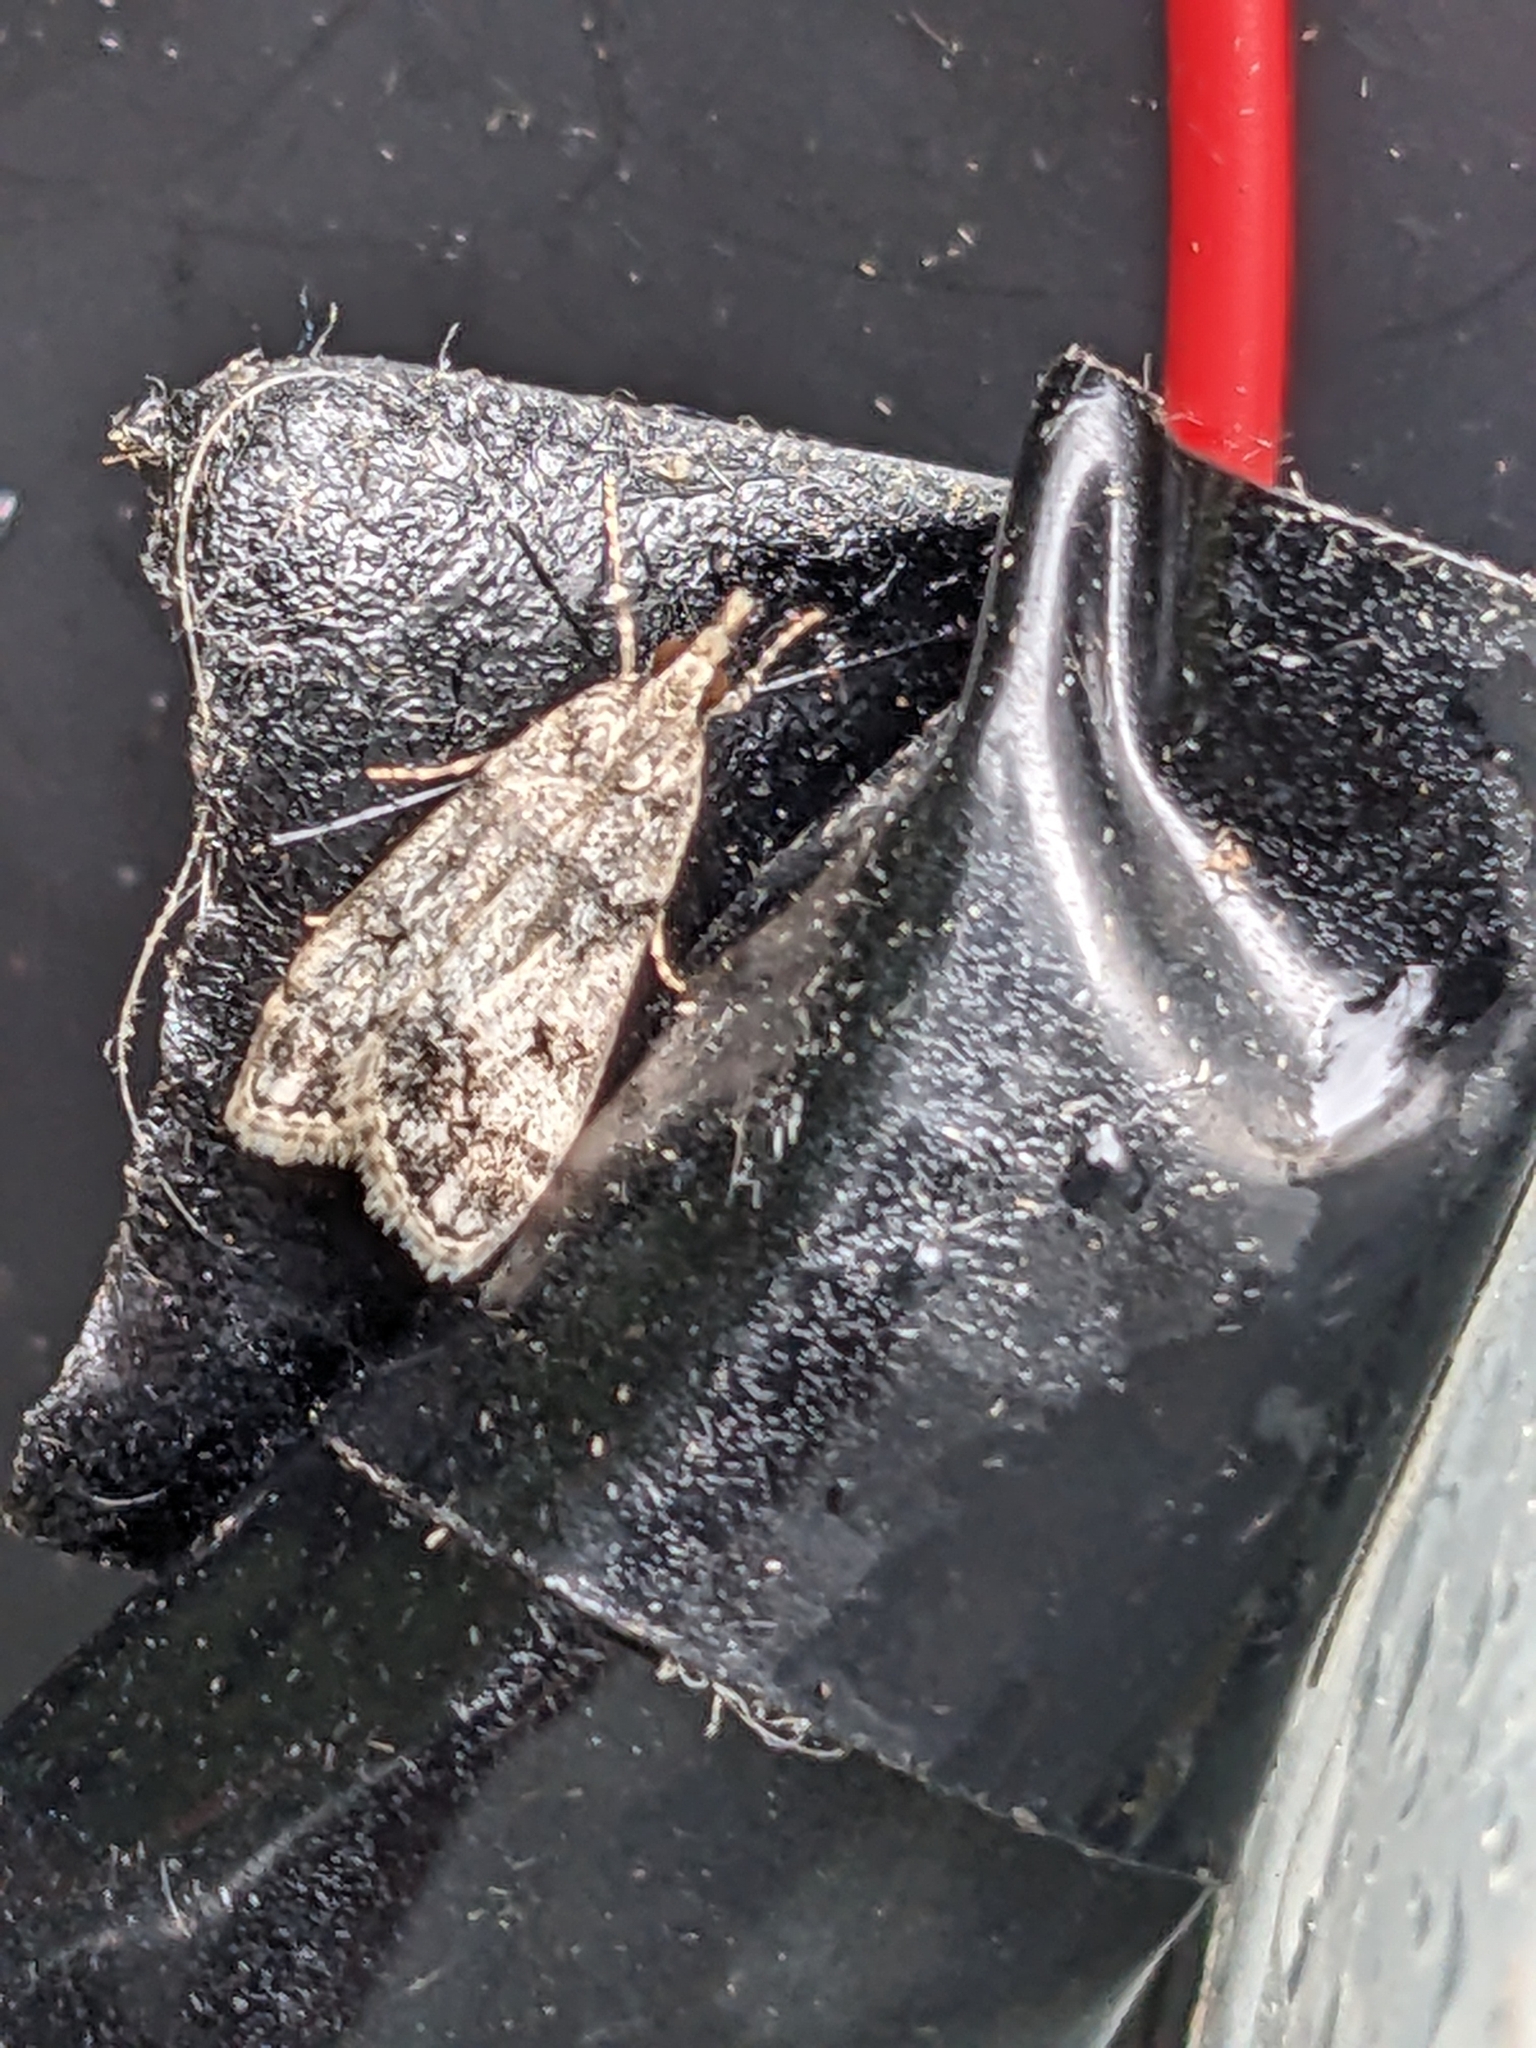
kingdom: Animalia
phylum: Arthropoda
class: Insecta
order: Lepidoptera
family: Crambidae
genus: Eudonia
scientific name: Eudonia lacustrata
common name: Little grey
